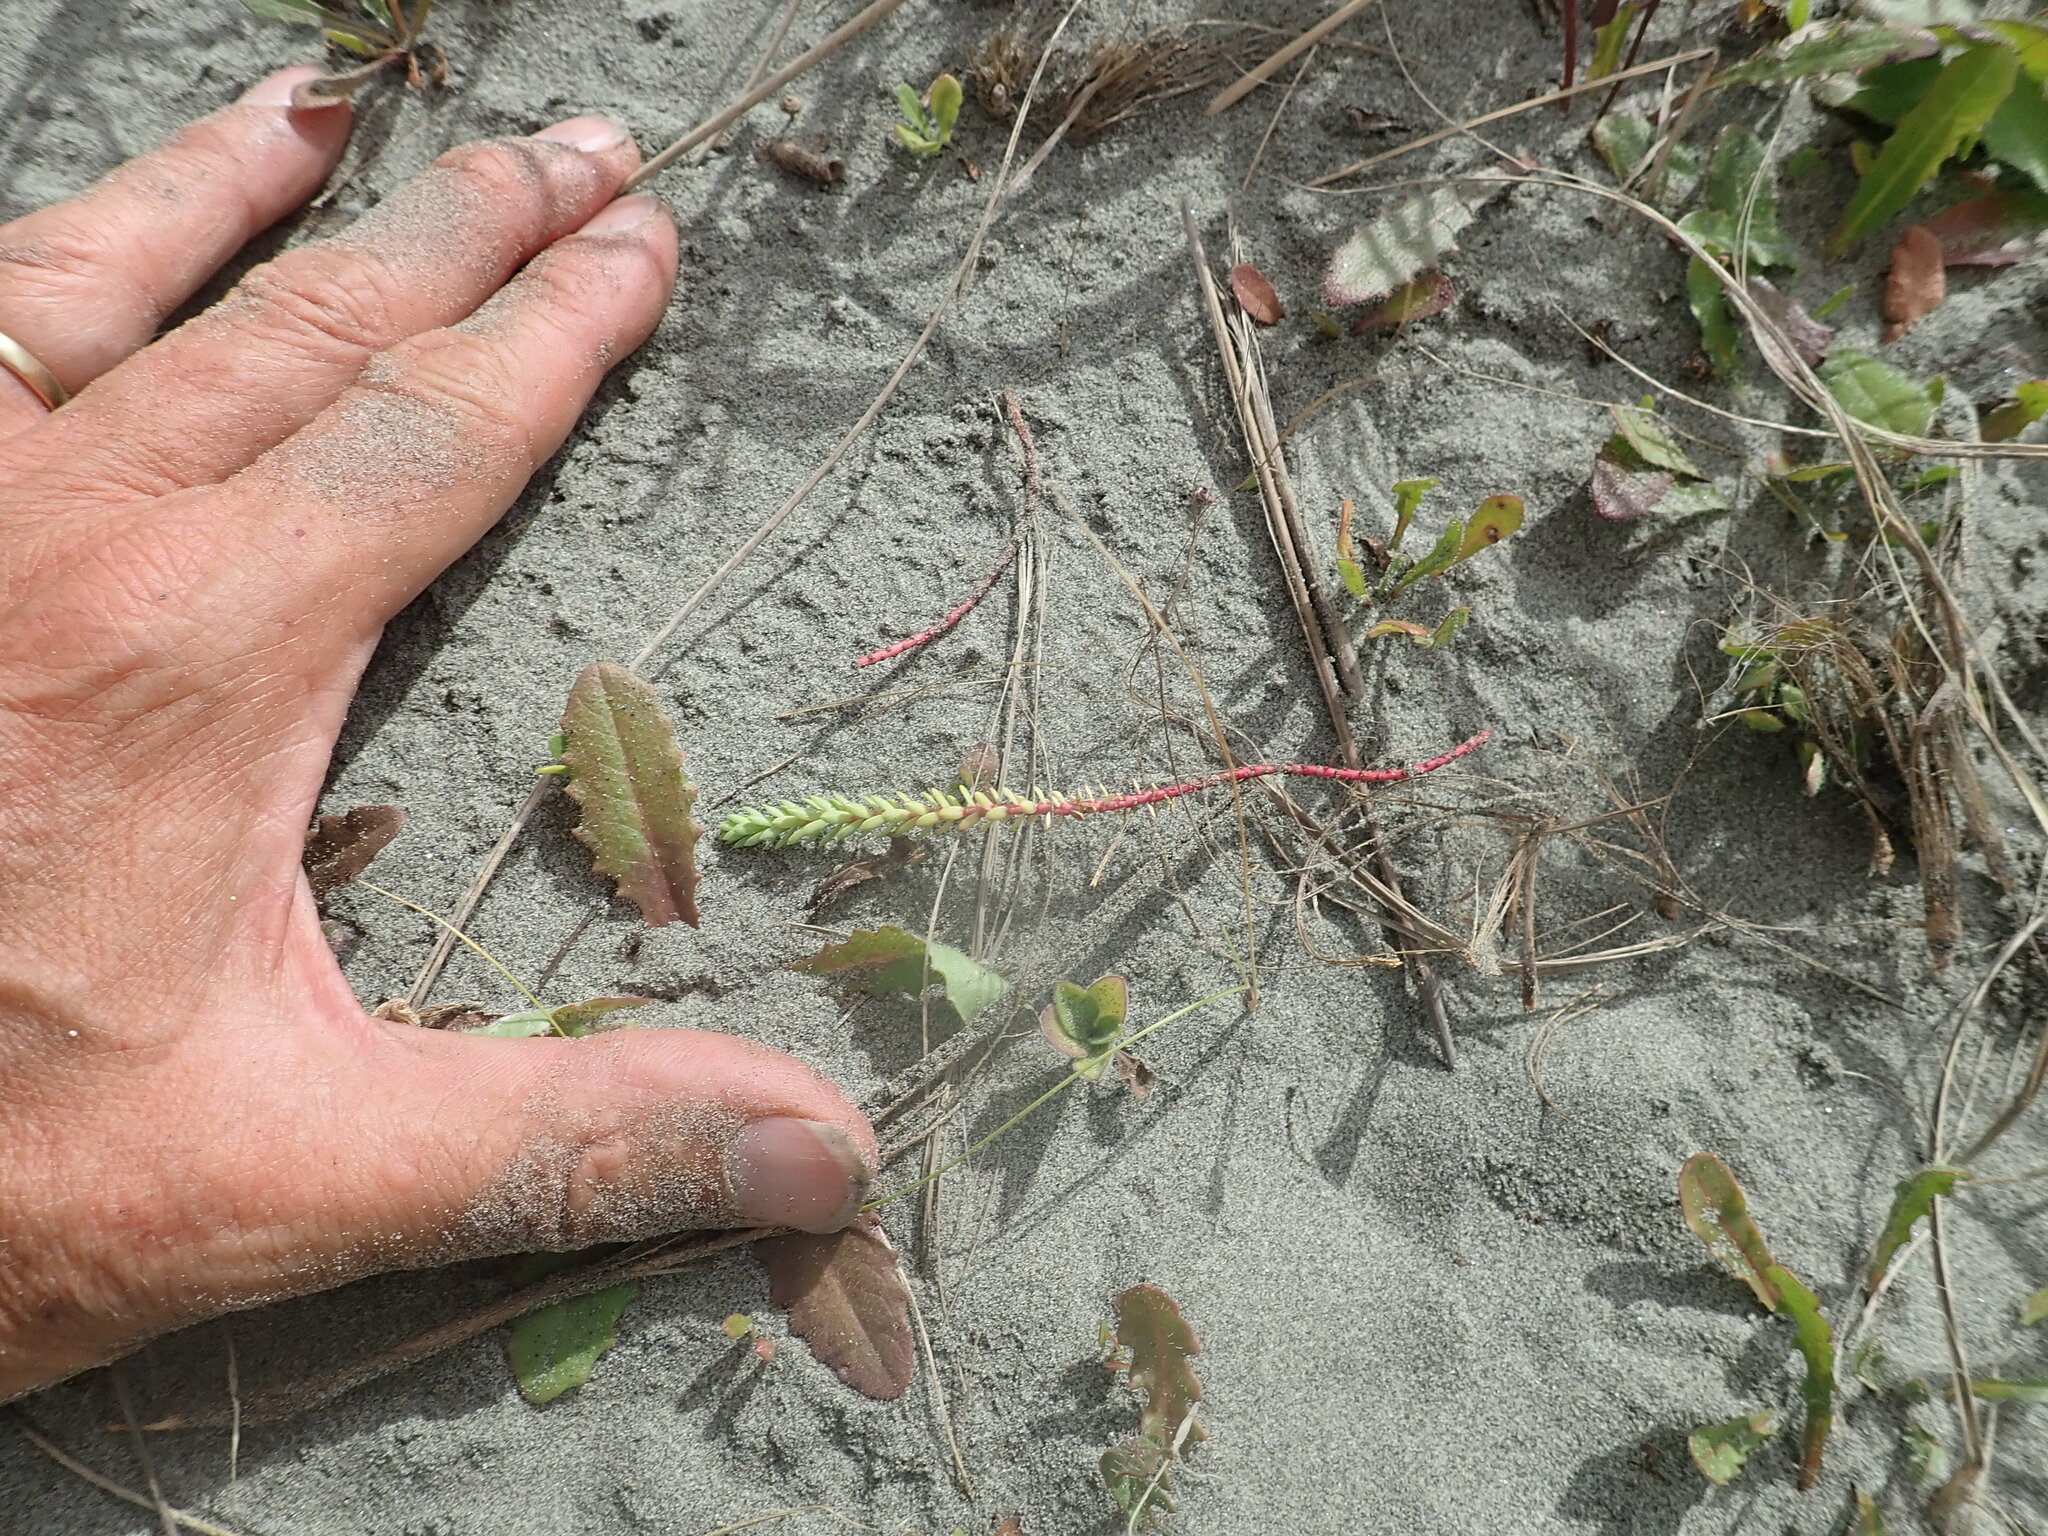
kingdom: Plantae
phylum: Tracheophyta
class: Magnoliopsida
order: Malpighiales
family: Euphorbiaceae
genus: Euphorbia
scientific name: Euphorbia paralias
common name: Sea spurge
